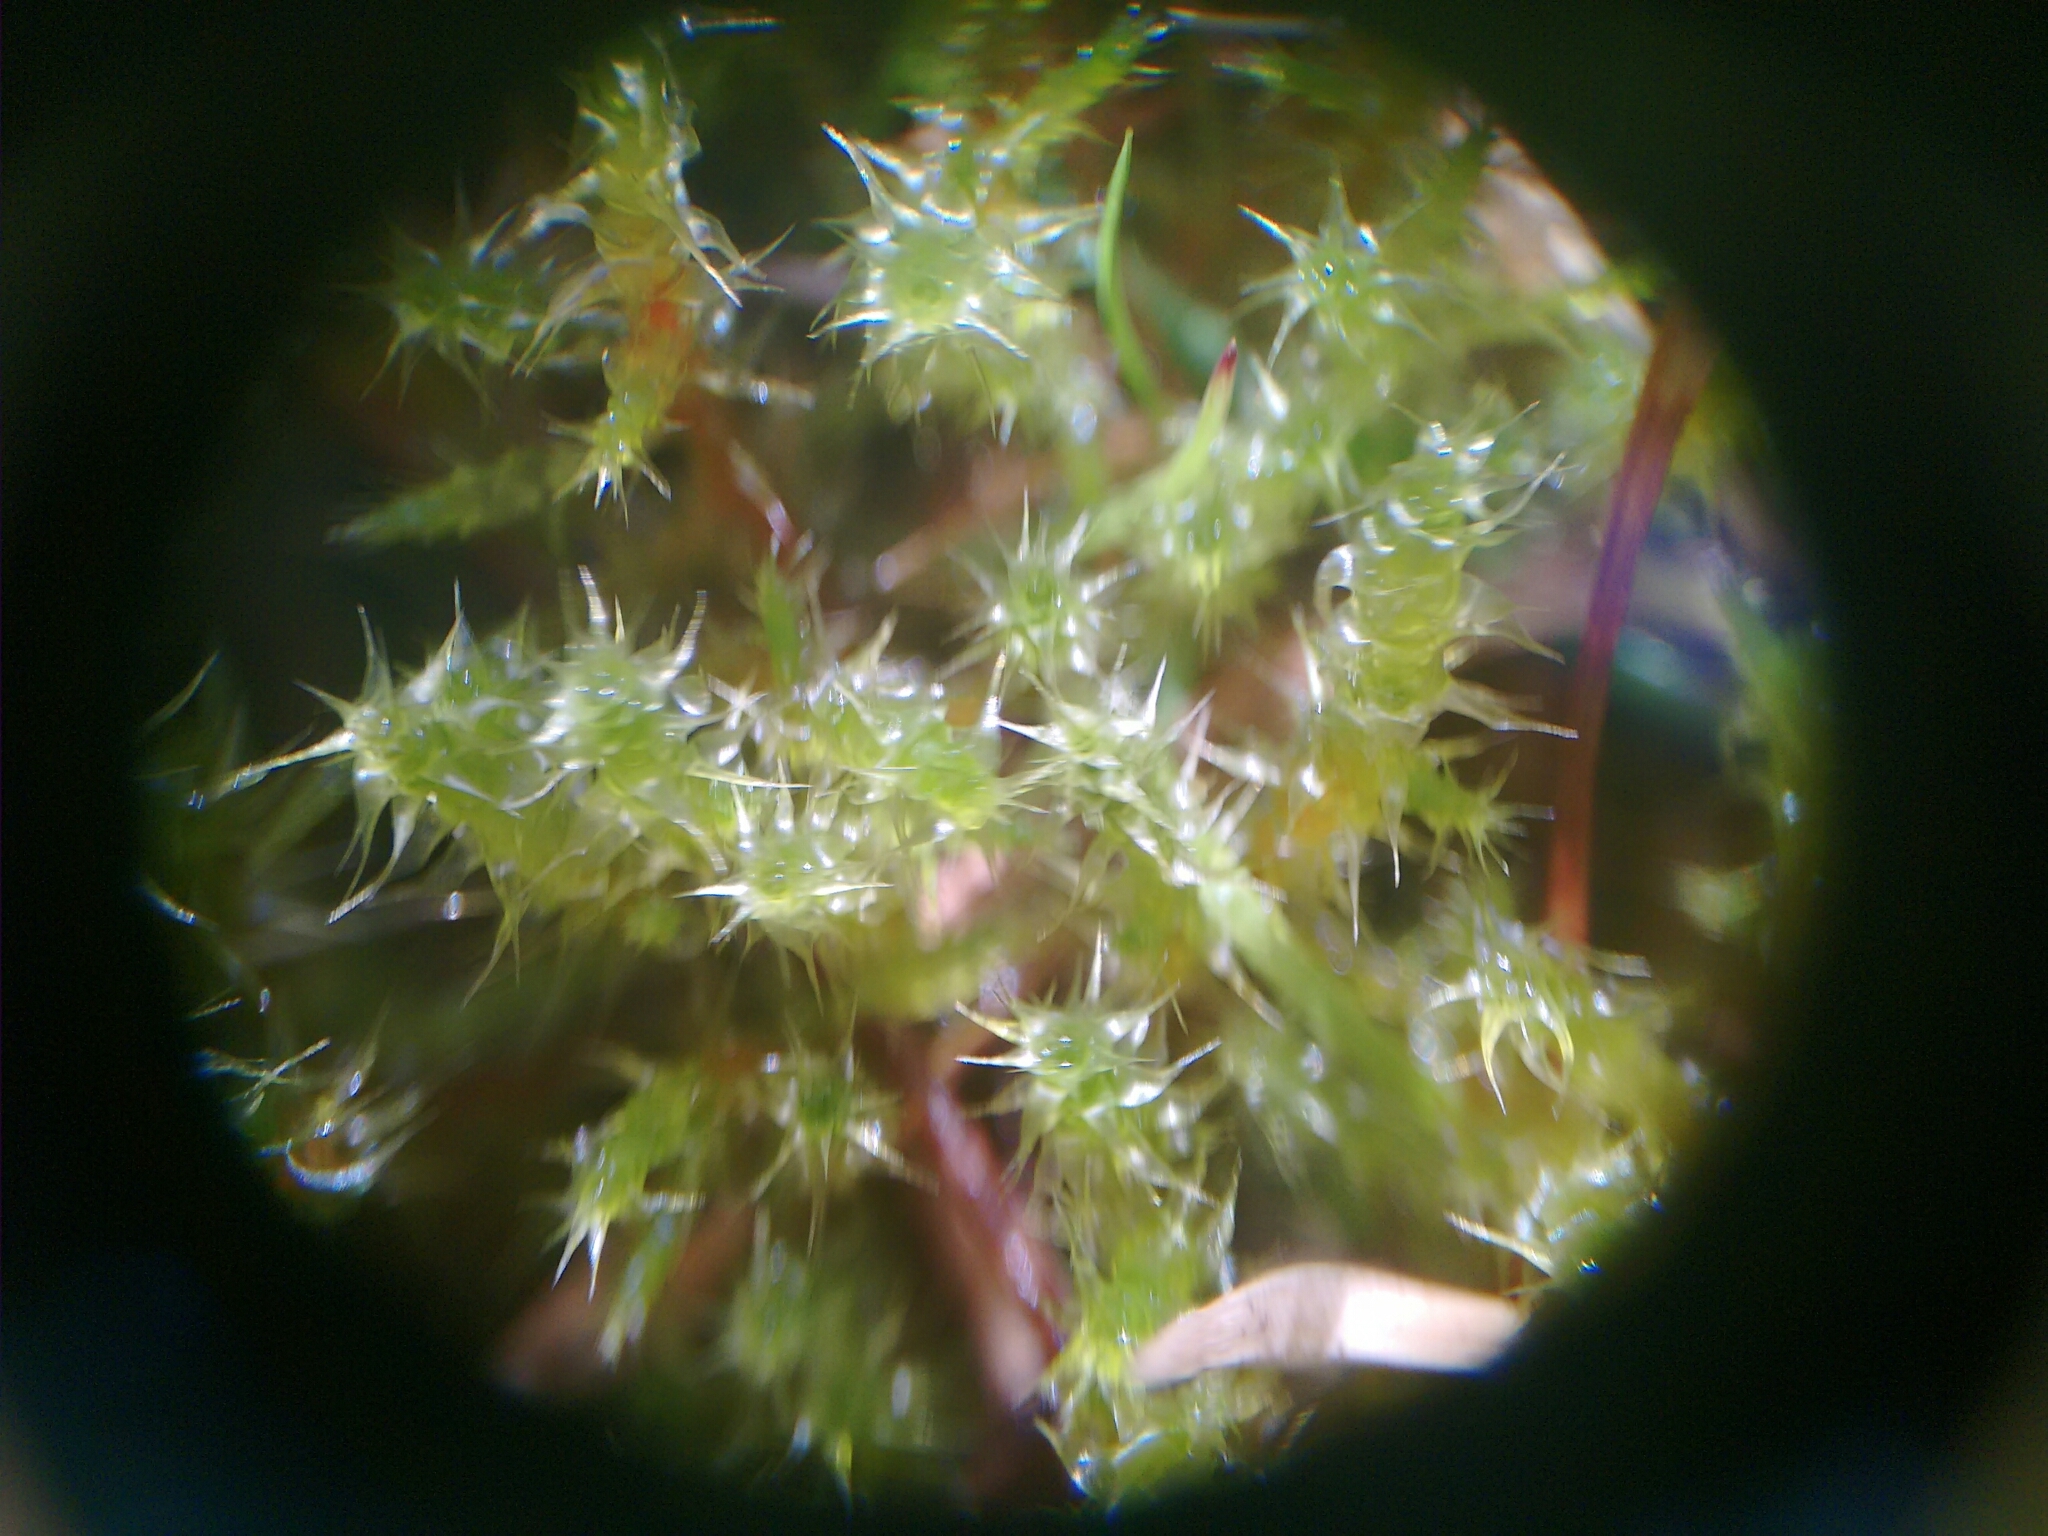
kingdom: Plantae
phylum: Bryophyta
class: Bryopsida
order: Hypnales
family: Hylocomiaceae
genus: Rhytidiadelphus
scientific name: Rhytidiadelphus squarrosus
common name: Springy turf-moss
